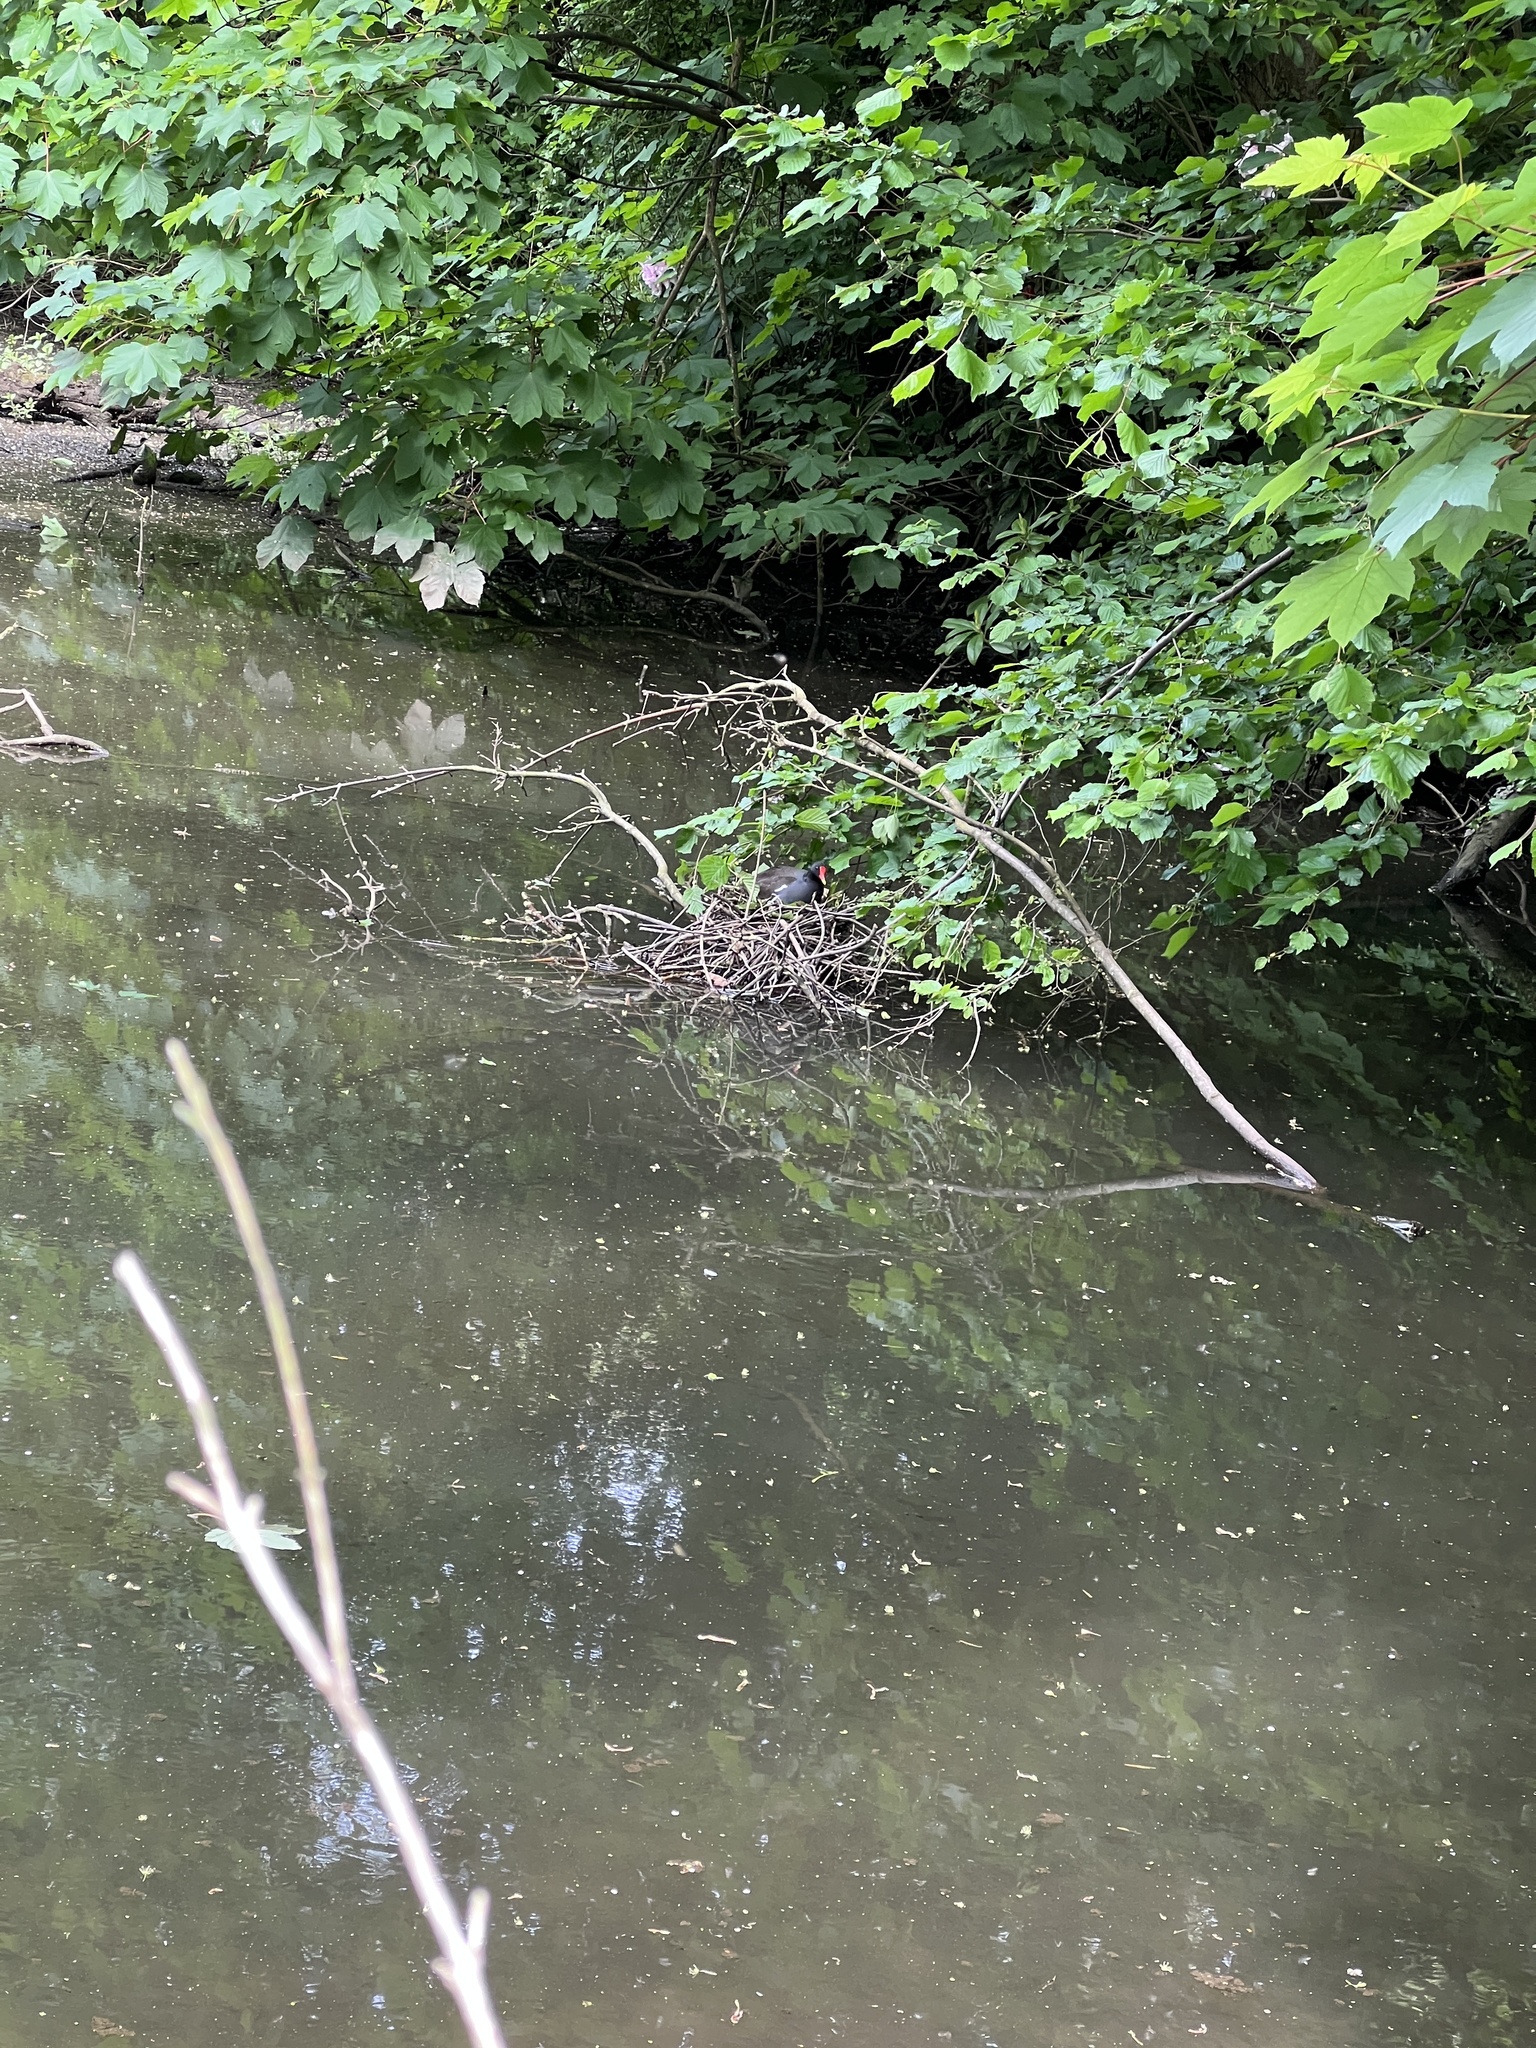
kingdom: Animalia
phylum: Chordata
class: Aves
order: Gruiformes
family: Rallidae
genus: Gallinula
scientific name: Gallinula chloropus
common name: Common moorhen
